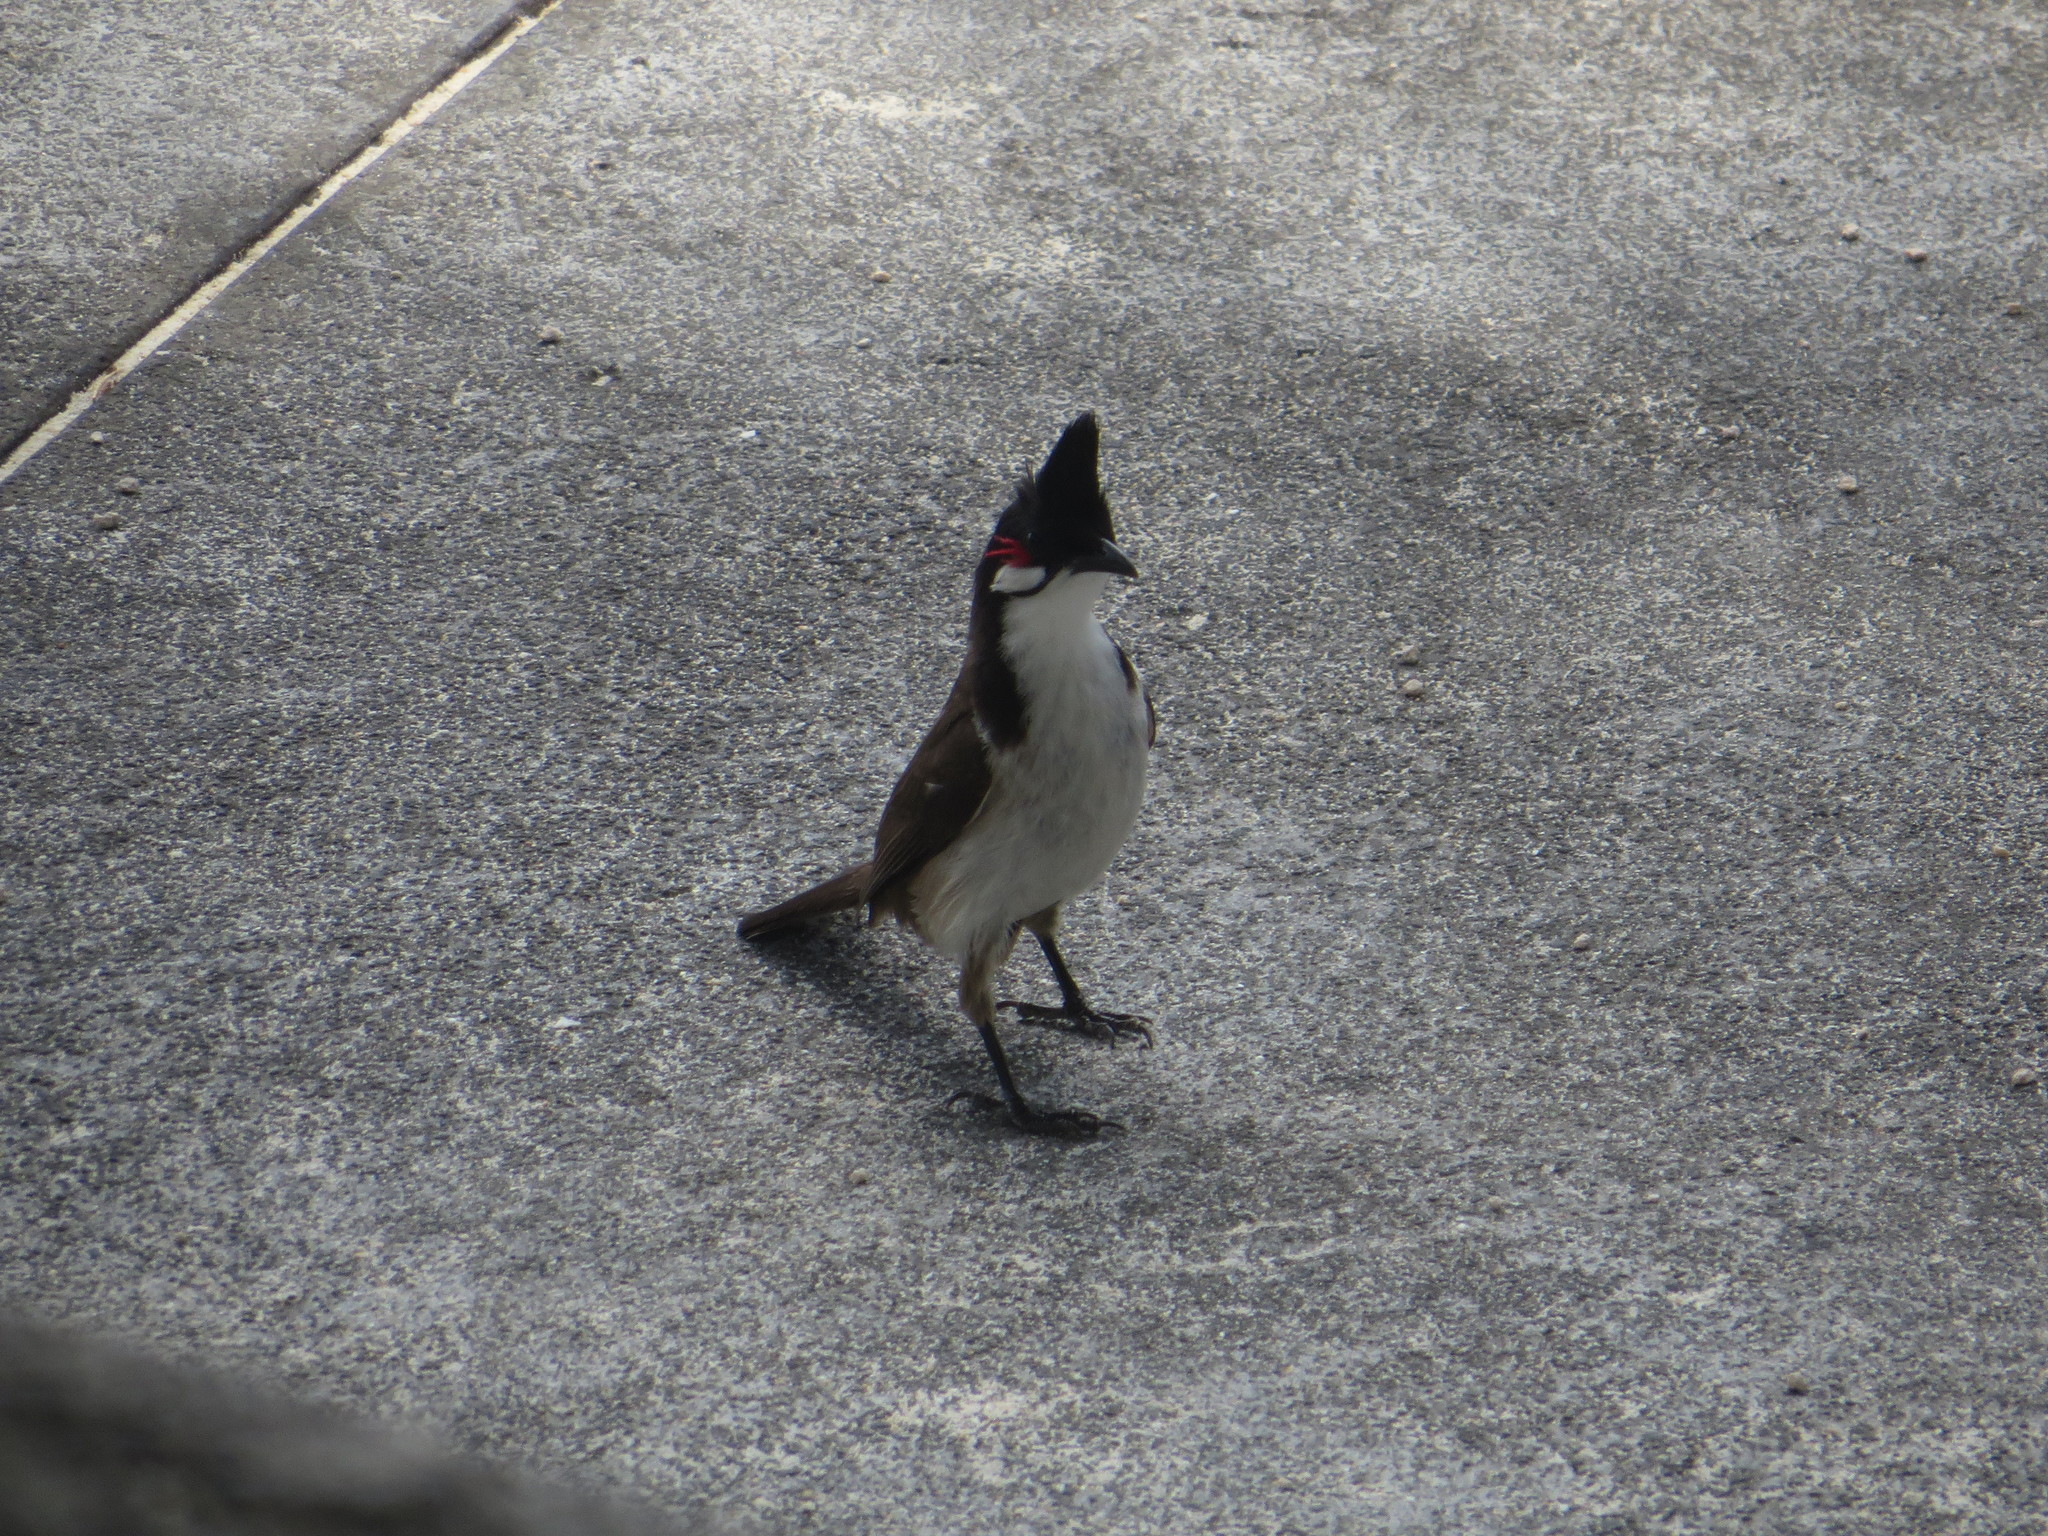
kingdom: Animalia
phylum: Chordata
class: Aves
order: Passeriformes
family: Pycnonotidae
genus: Pycnonotus
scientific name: Pycnonotus jocosus
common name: Red-whiskered bulbul
